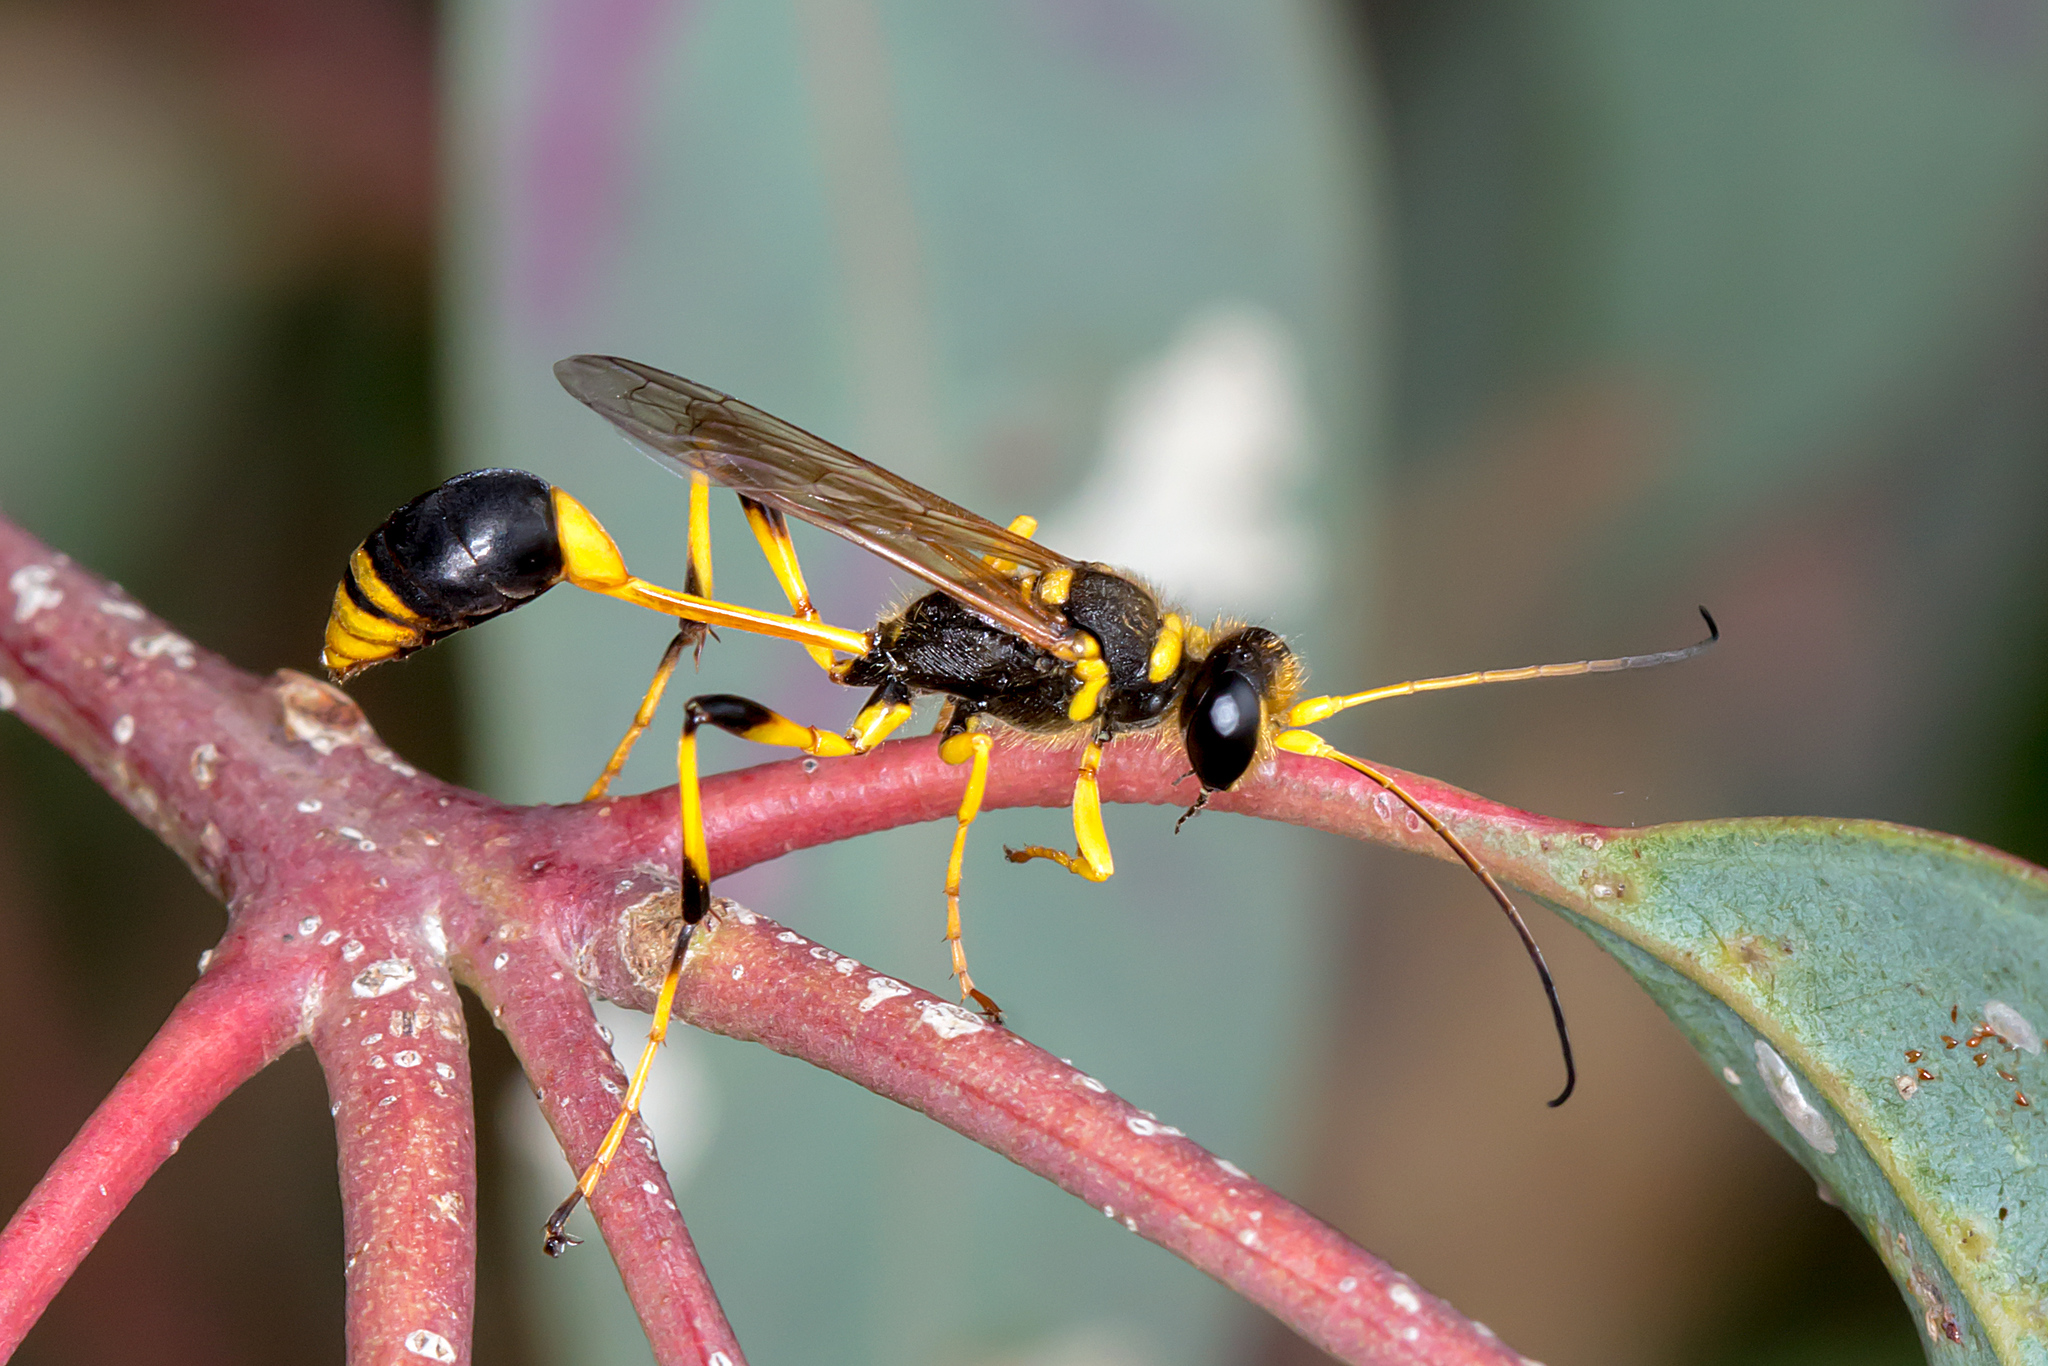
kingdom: Animalia
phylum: Arthropoda
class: Insecta
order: Hymenoptera
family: Sphecidae
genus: Sceliphron
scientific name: Sceliphron laetum
